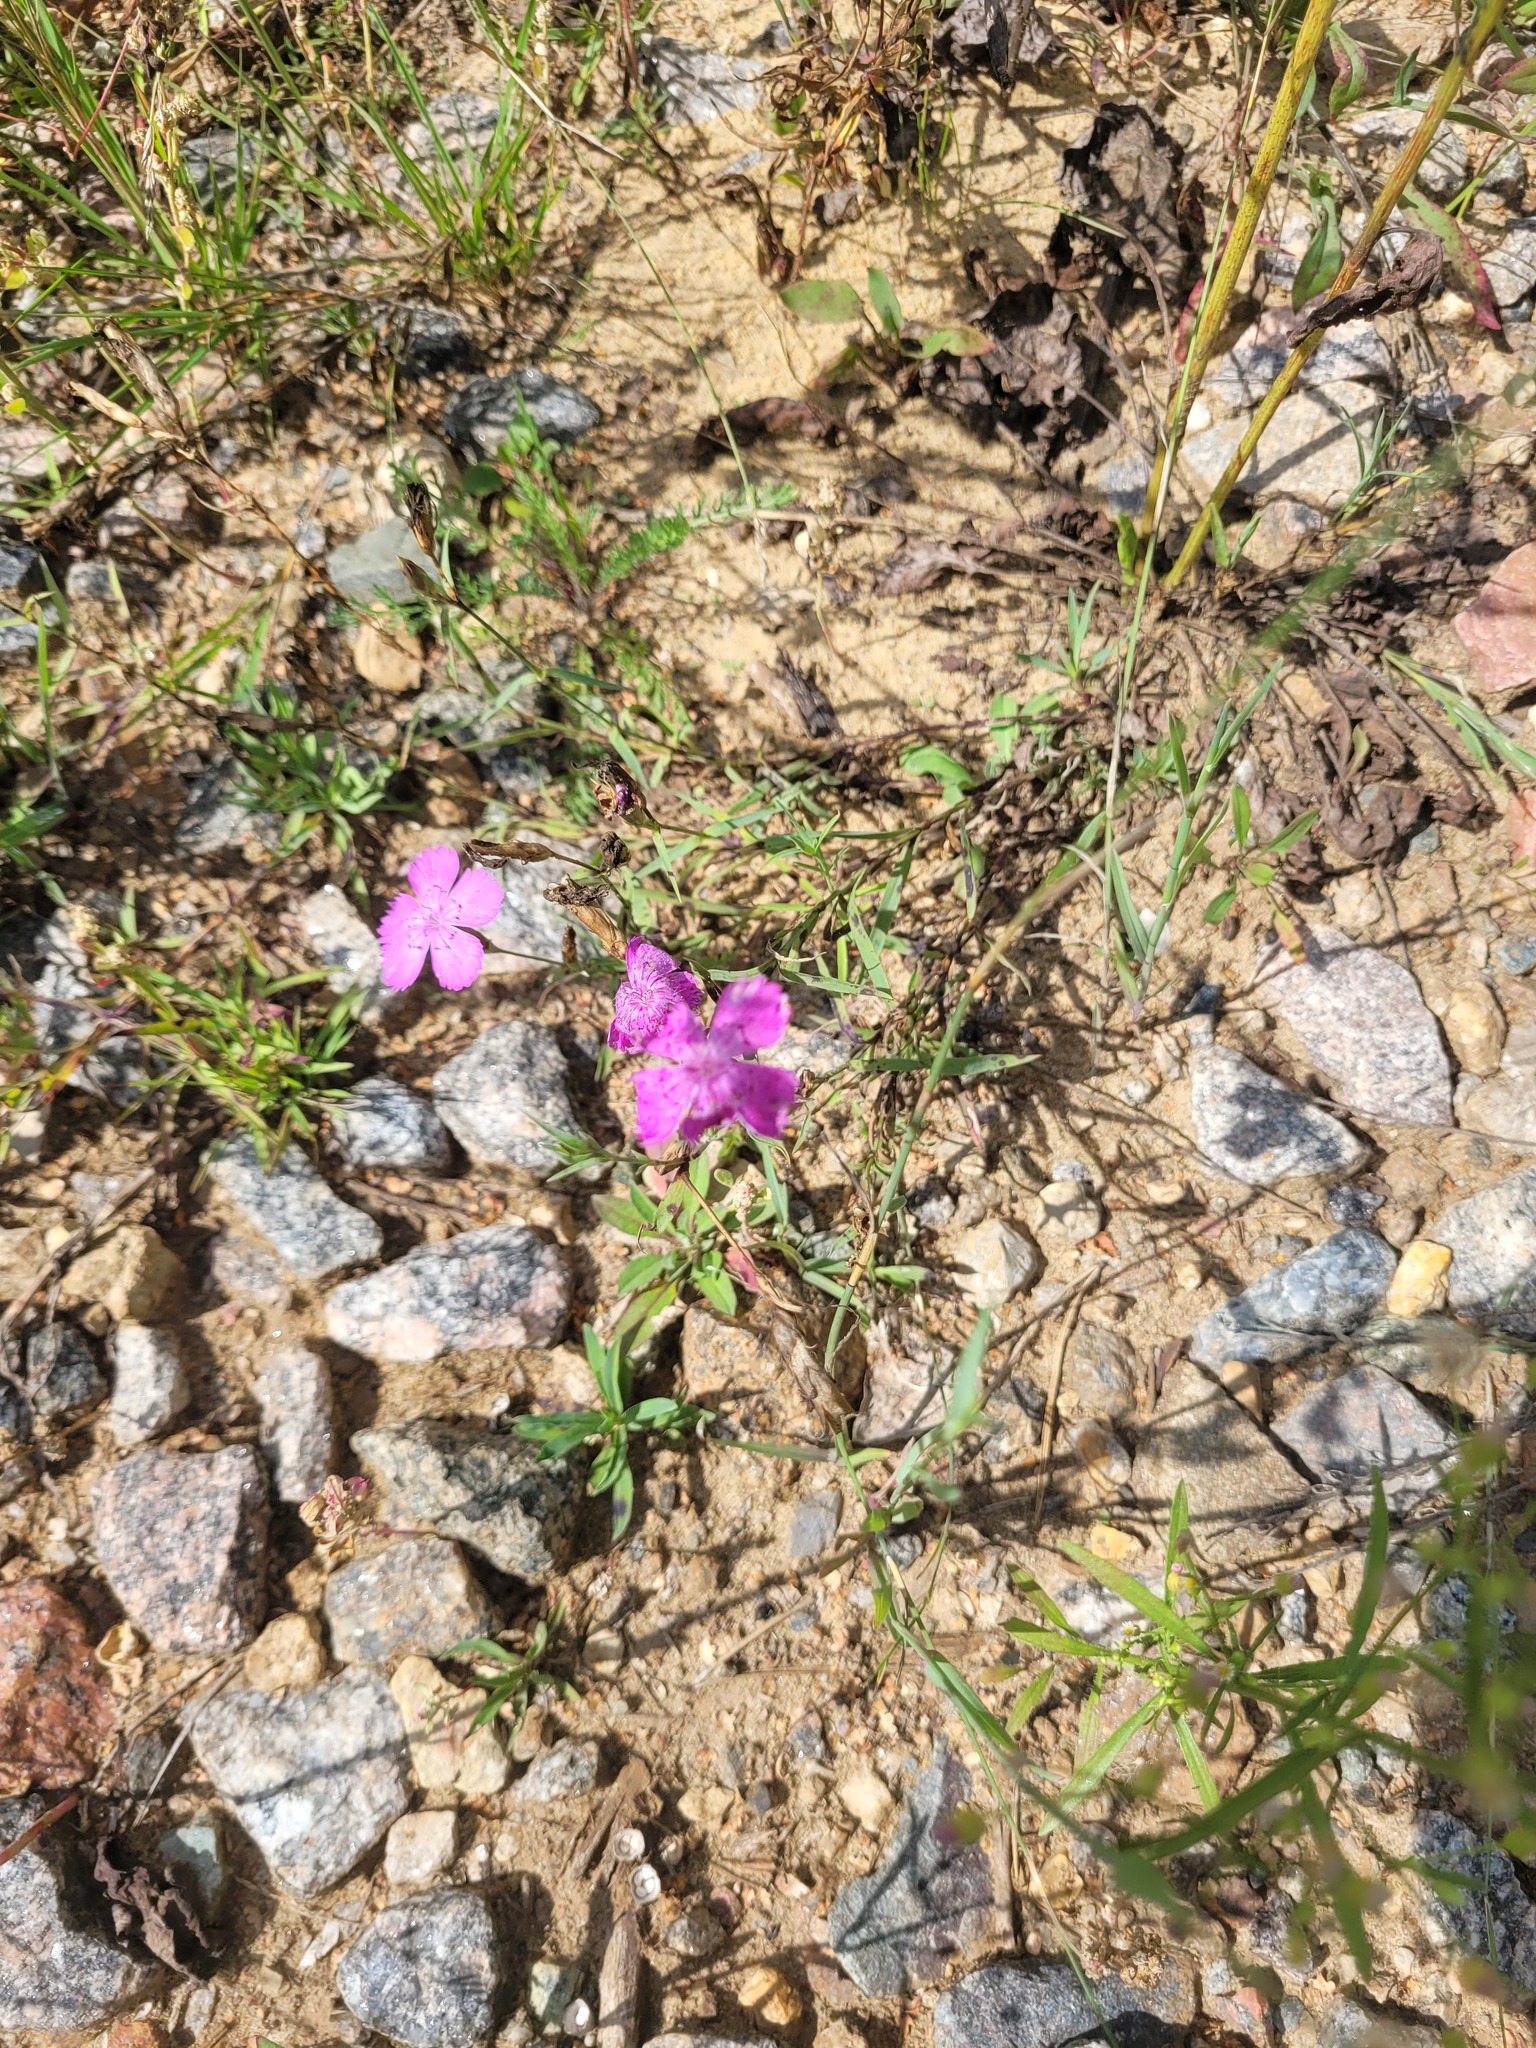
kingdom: Plantae
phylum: Tracheophyta
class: Magnoliopsida
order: Caryophyllales
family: Caryophyllaceae
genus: Dianthus
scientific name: Dianthus chinensis
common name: Rainbow pink
